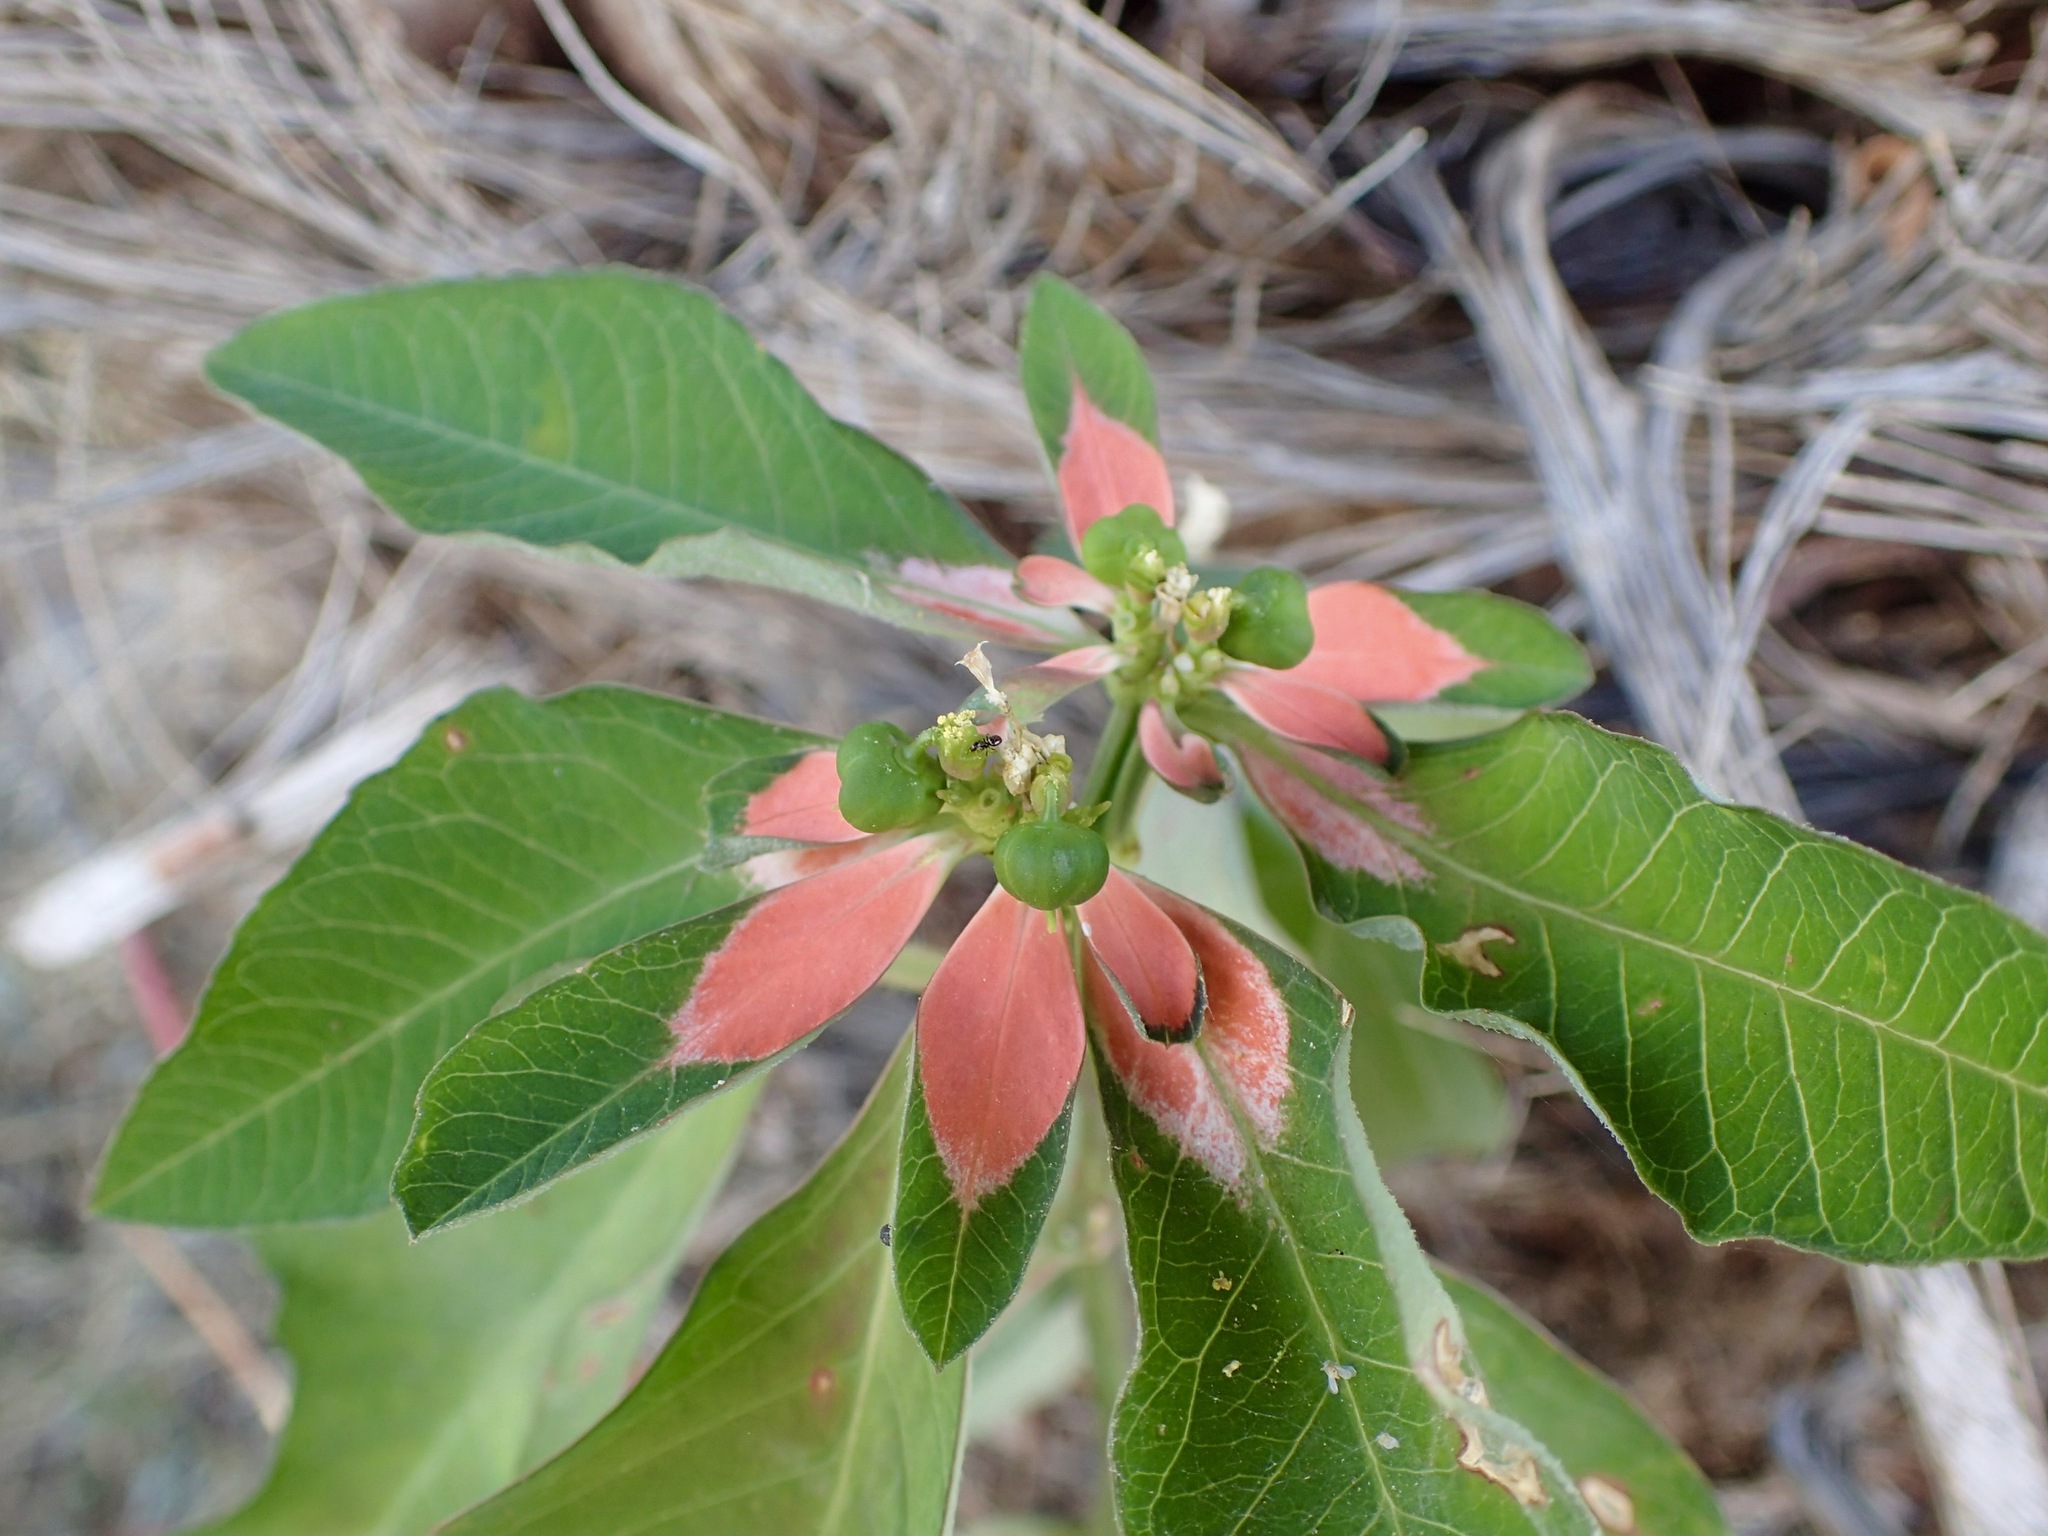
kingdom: Plantae
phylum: Tracheophyta
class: Magnoliopsida
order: Malpighiales
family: Euphorbiaceae
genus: Euphorbia
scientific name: Euphorbia heterophylla
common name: Mexican fireplant
